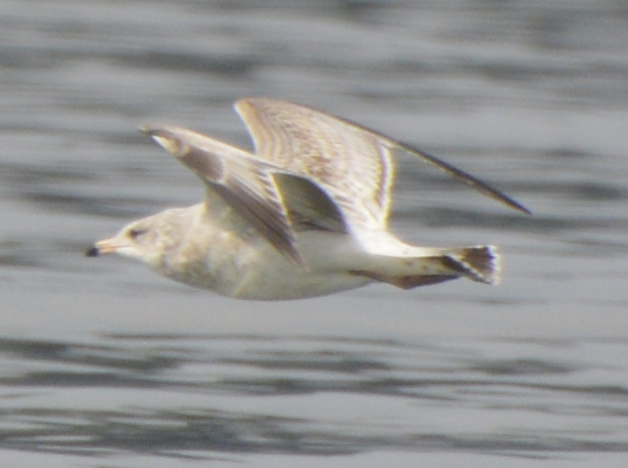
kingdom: Animalia
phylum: Chordata
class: Aves
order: Charadriiformes
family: Laridae
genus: Larus
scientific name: Larus delawarensis
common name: Ring-billed gull
